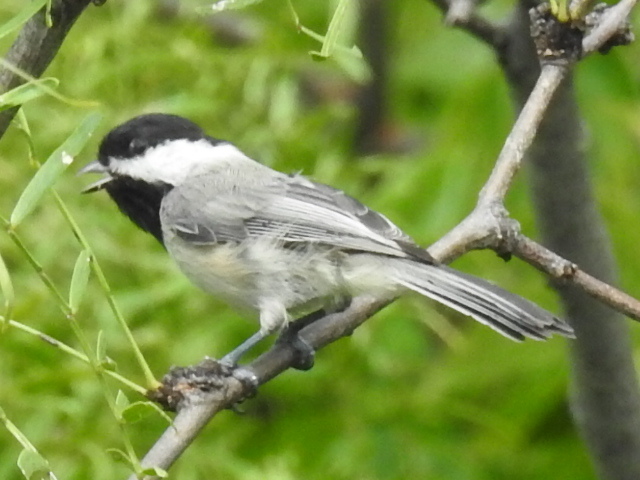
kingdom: Animalia
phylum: Chordata
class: Aves
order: Passeriformes
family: Paridae
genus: Poecile
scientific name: Poecile carolinensis
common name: Carolina chickadee
